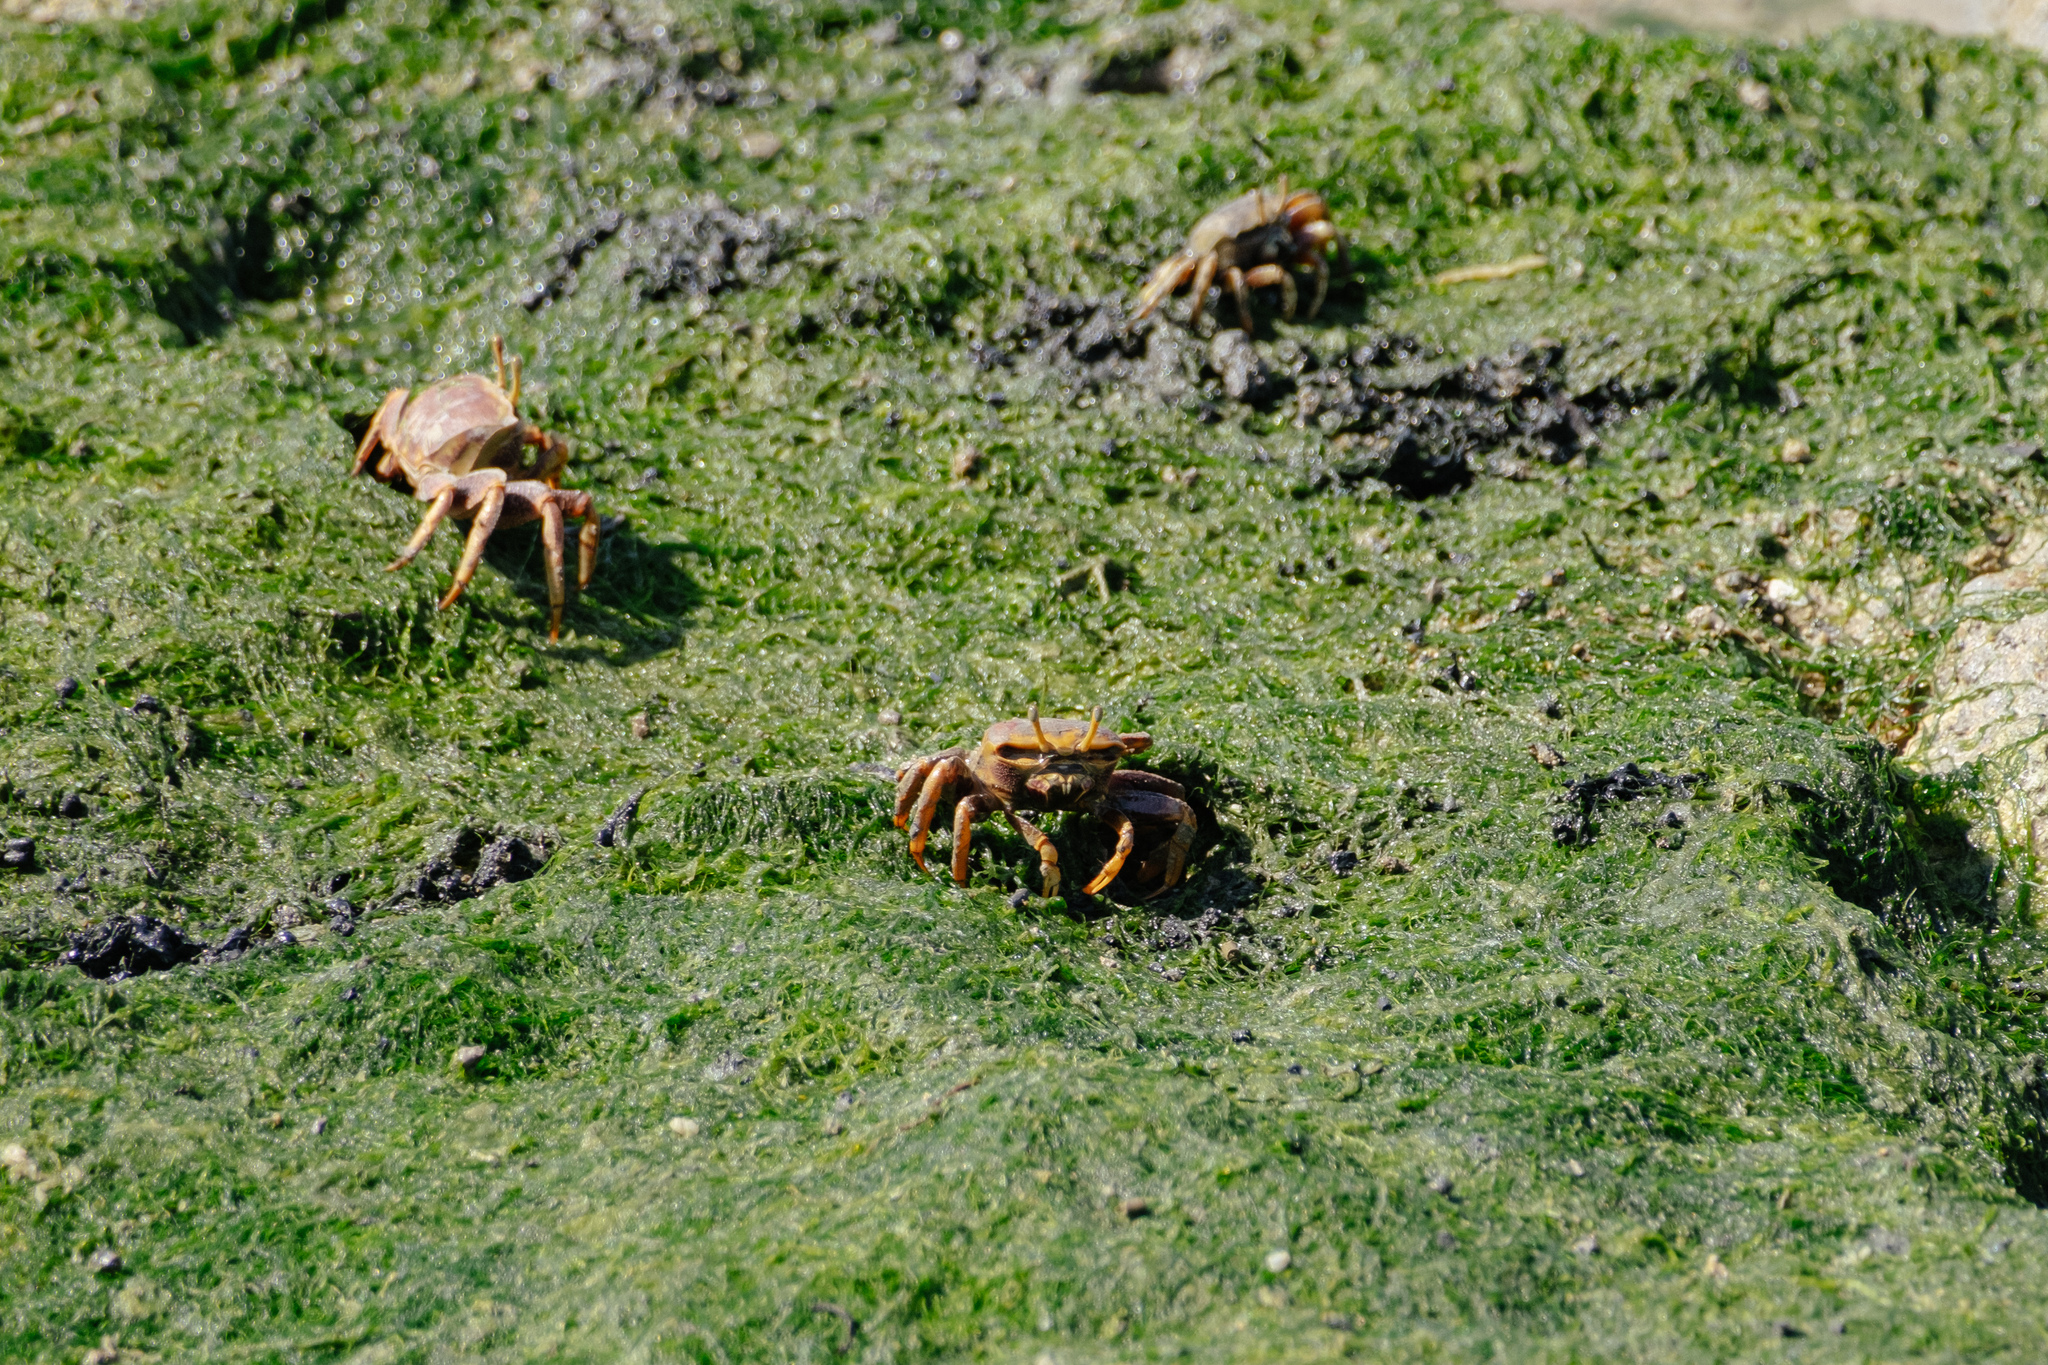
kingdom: Animalia
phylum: Arthropoda
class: Malacostraca
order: Decapoda
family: Ocypodidae
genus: Afruca
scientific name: Afruca tangeri
